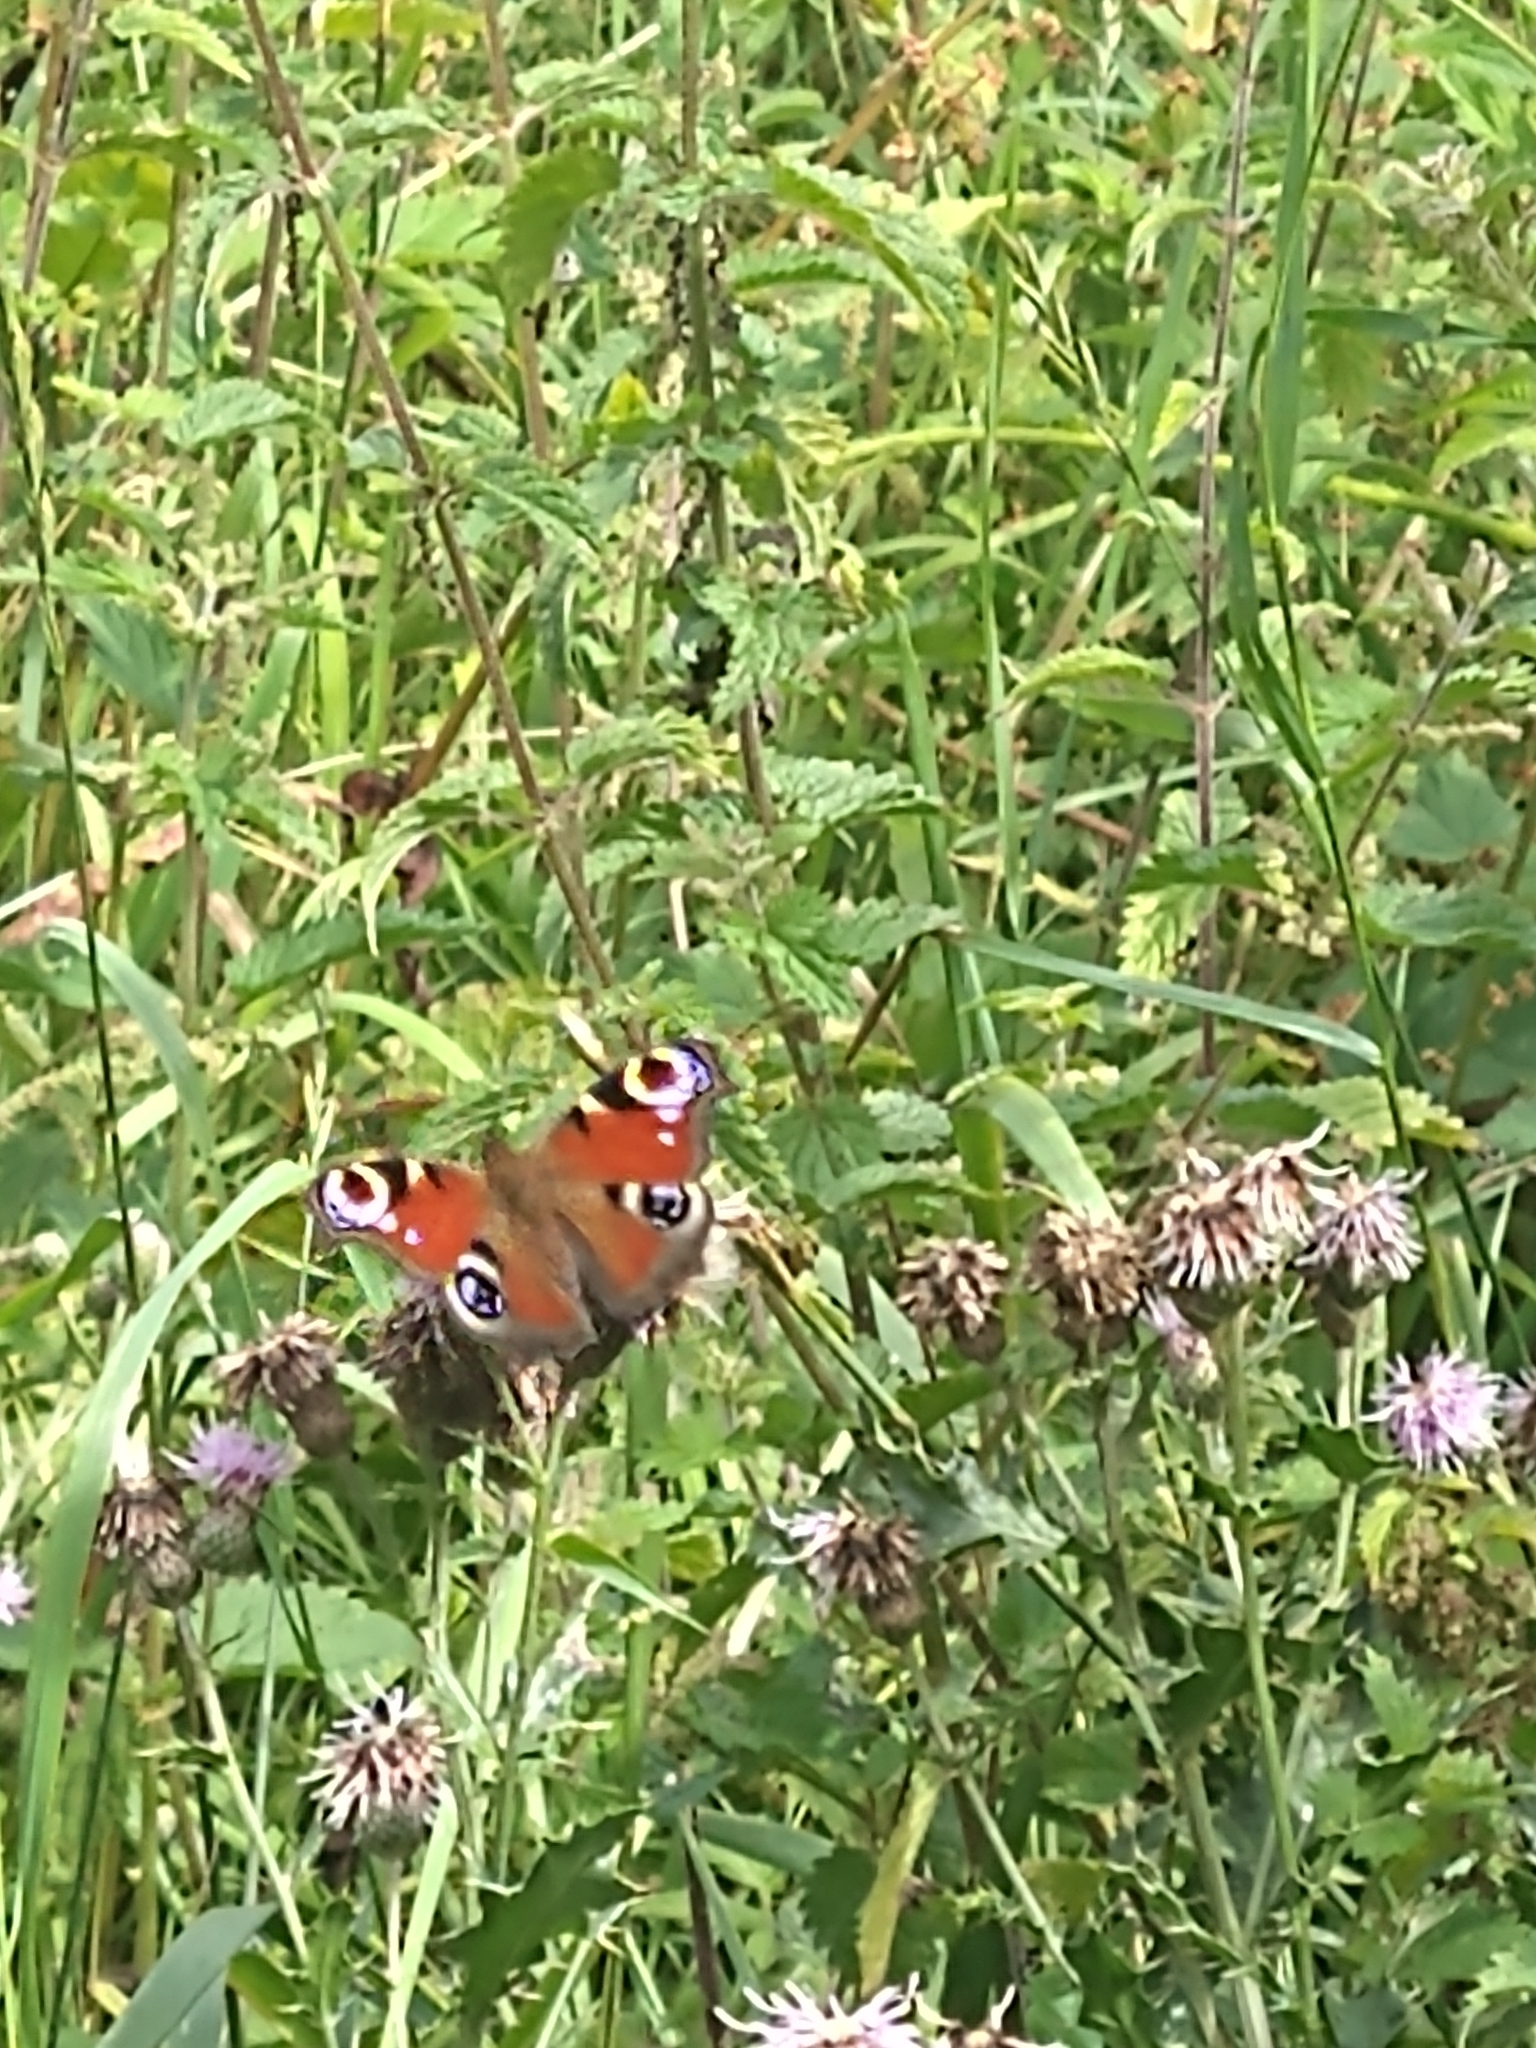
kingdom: Animalia
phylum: Arthropoda
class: Insecta
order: Lepidoptera
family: Nymphalidae
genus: Aglais
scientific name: Aglais io
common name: Peacock
